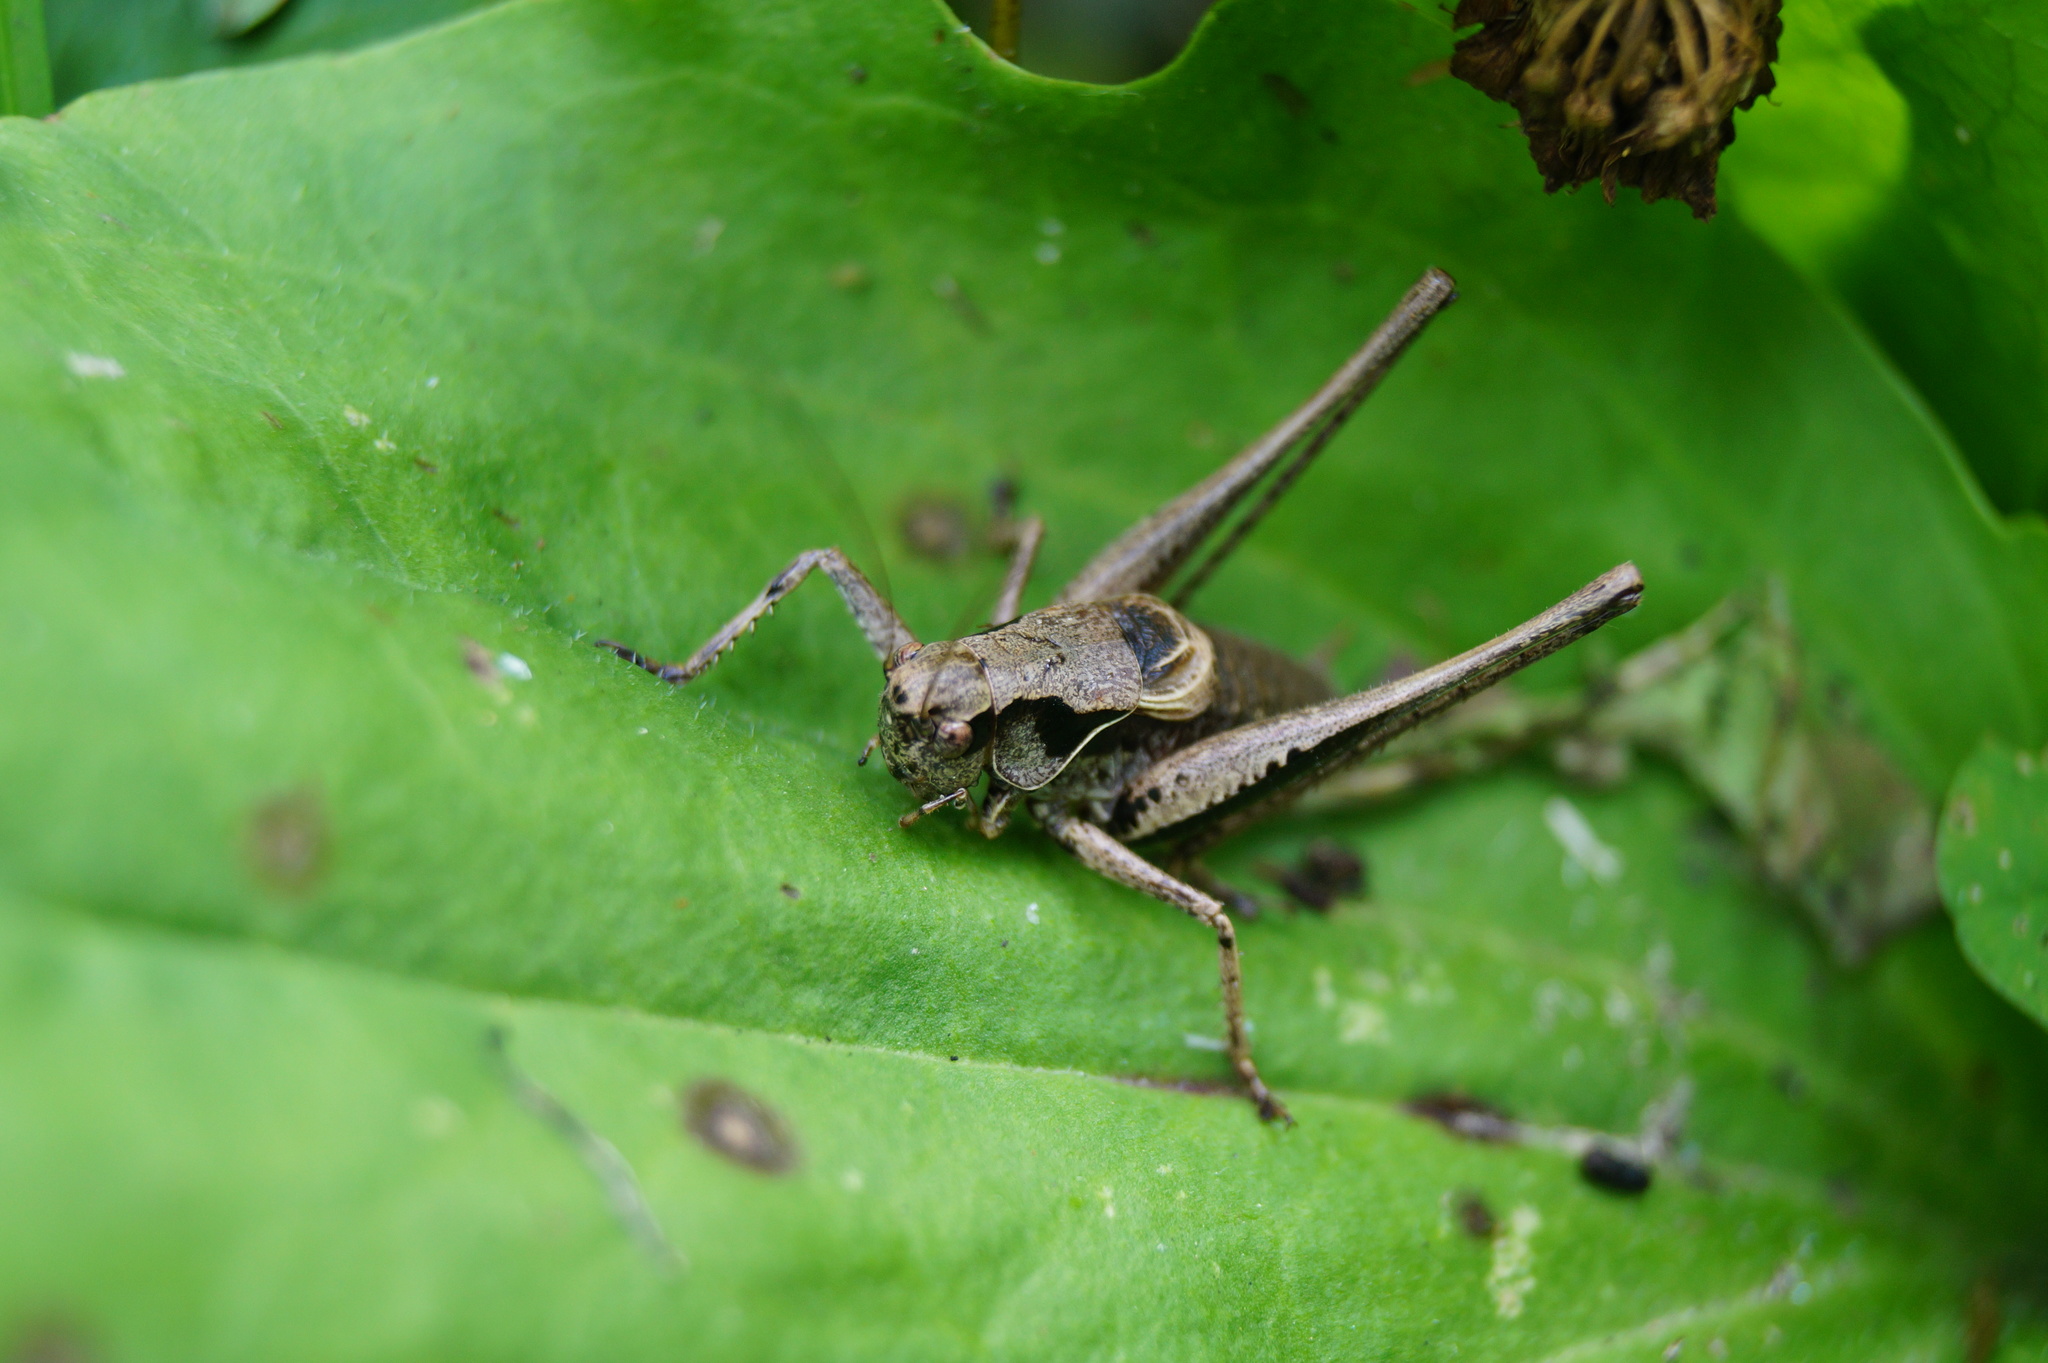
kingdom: Animalia
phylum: Arthropoda
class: Insecta
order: Orthoptera
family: Tettigoniidae
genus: Pholidoptera
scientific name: Pholidoptera griseoaptera
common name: Dark bush-cricket
